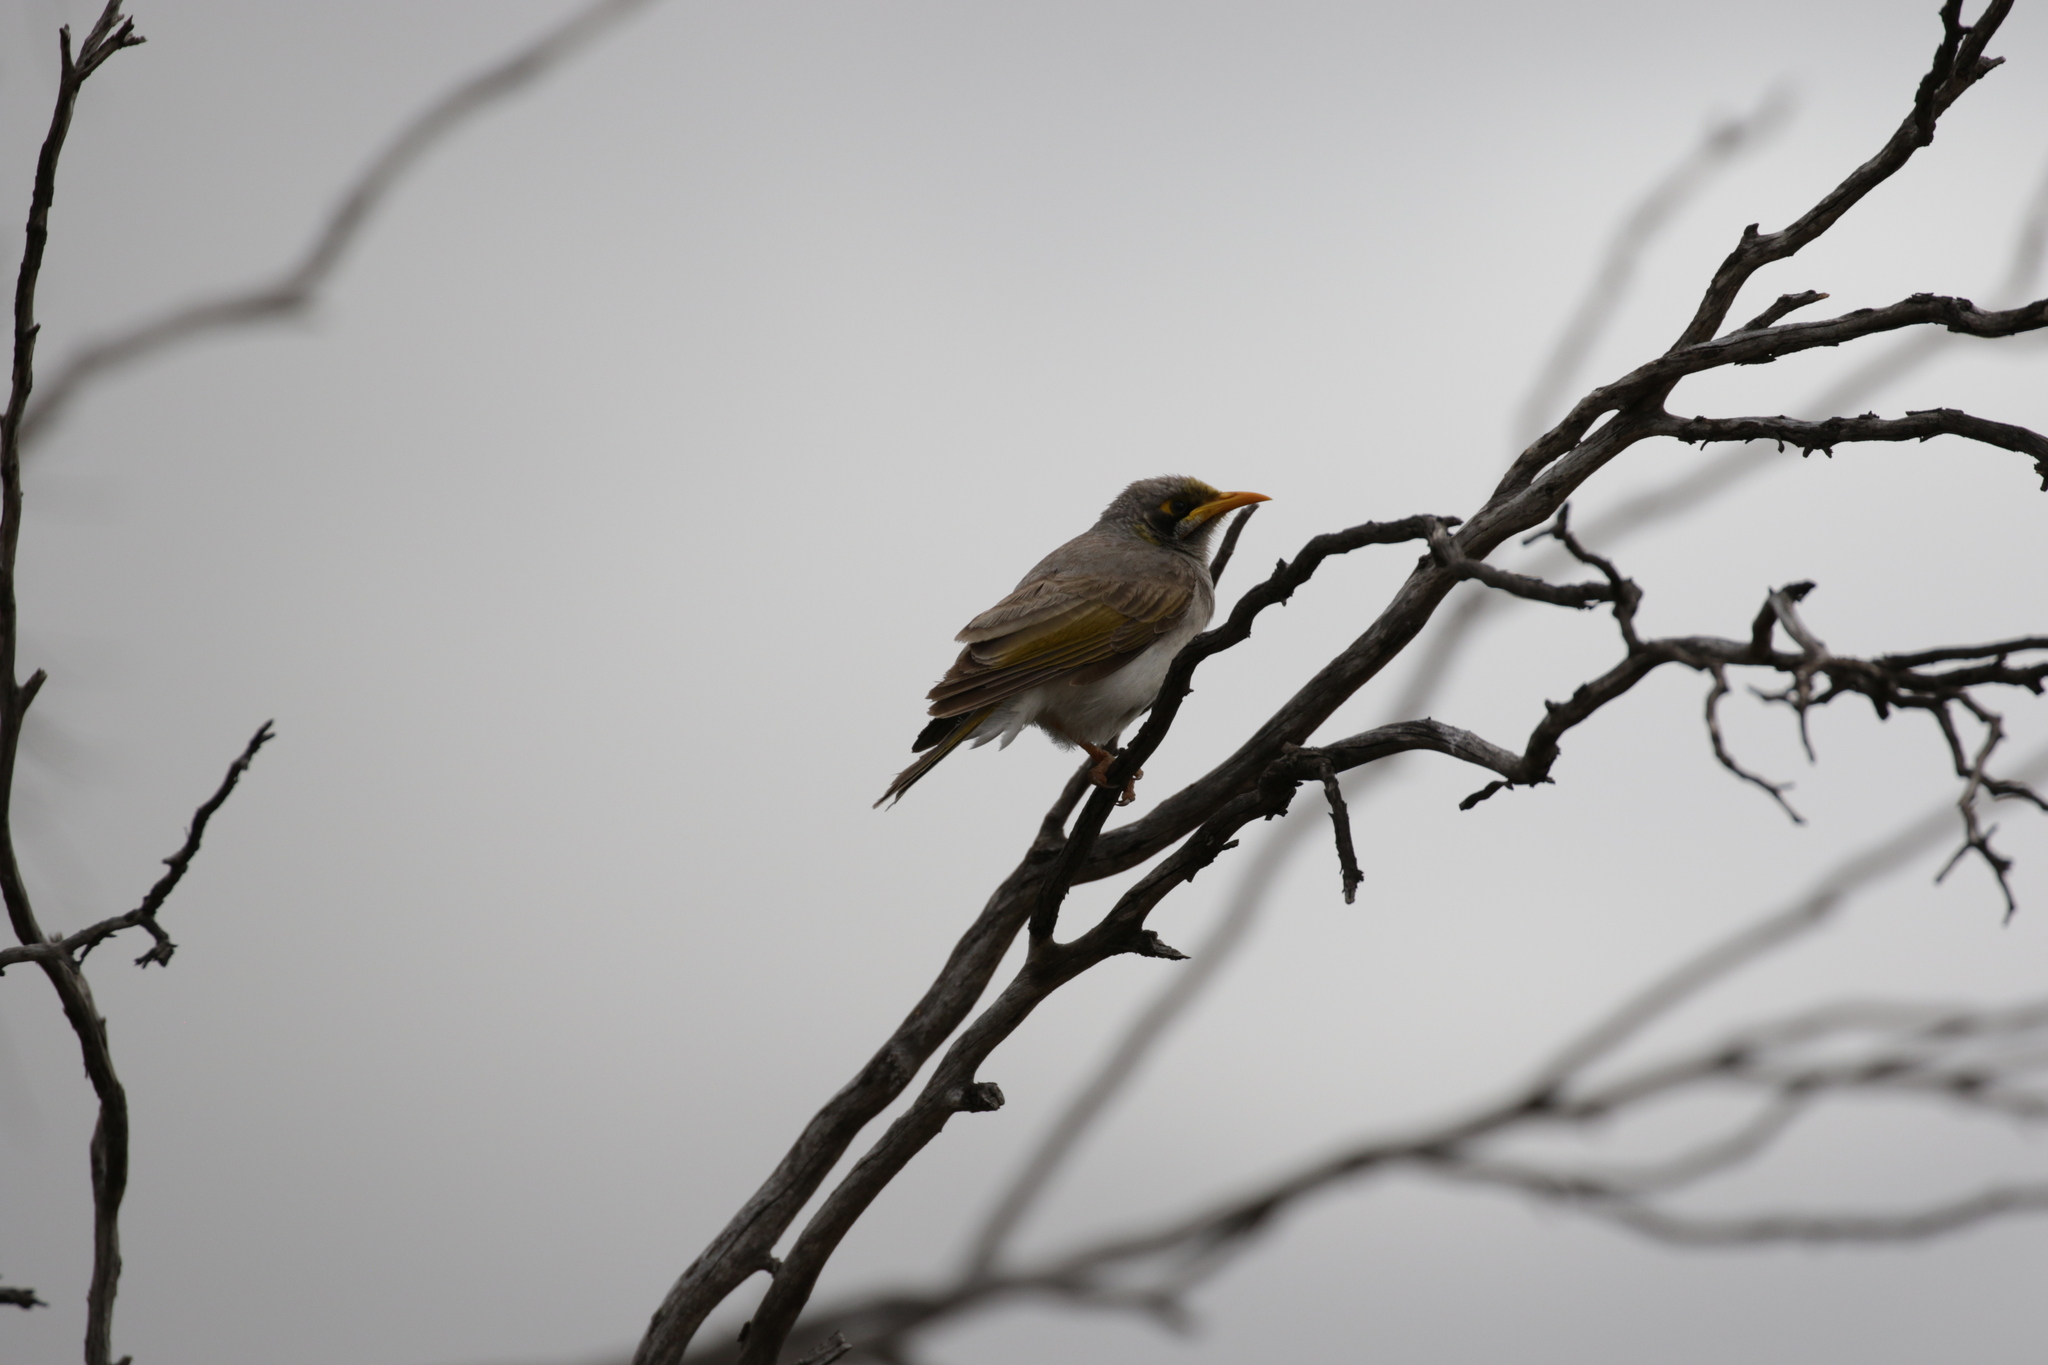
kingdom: Animalia
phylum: Chordata
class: Aves
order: Passeriformes
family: Meliphagidae
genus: Manorina
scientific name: Manorina flavigula
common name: Yellow-throated miner
